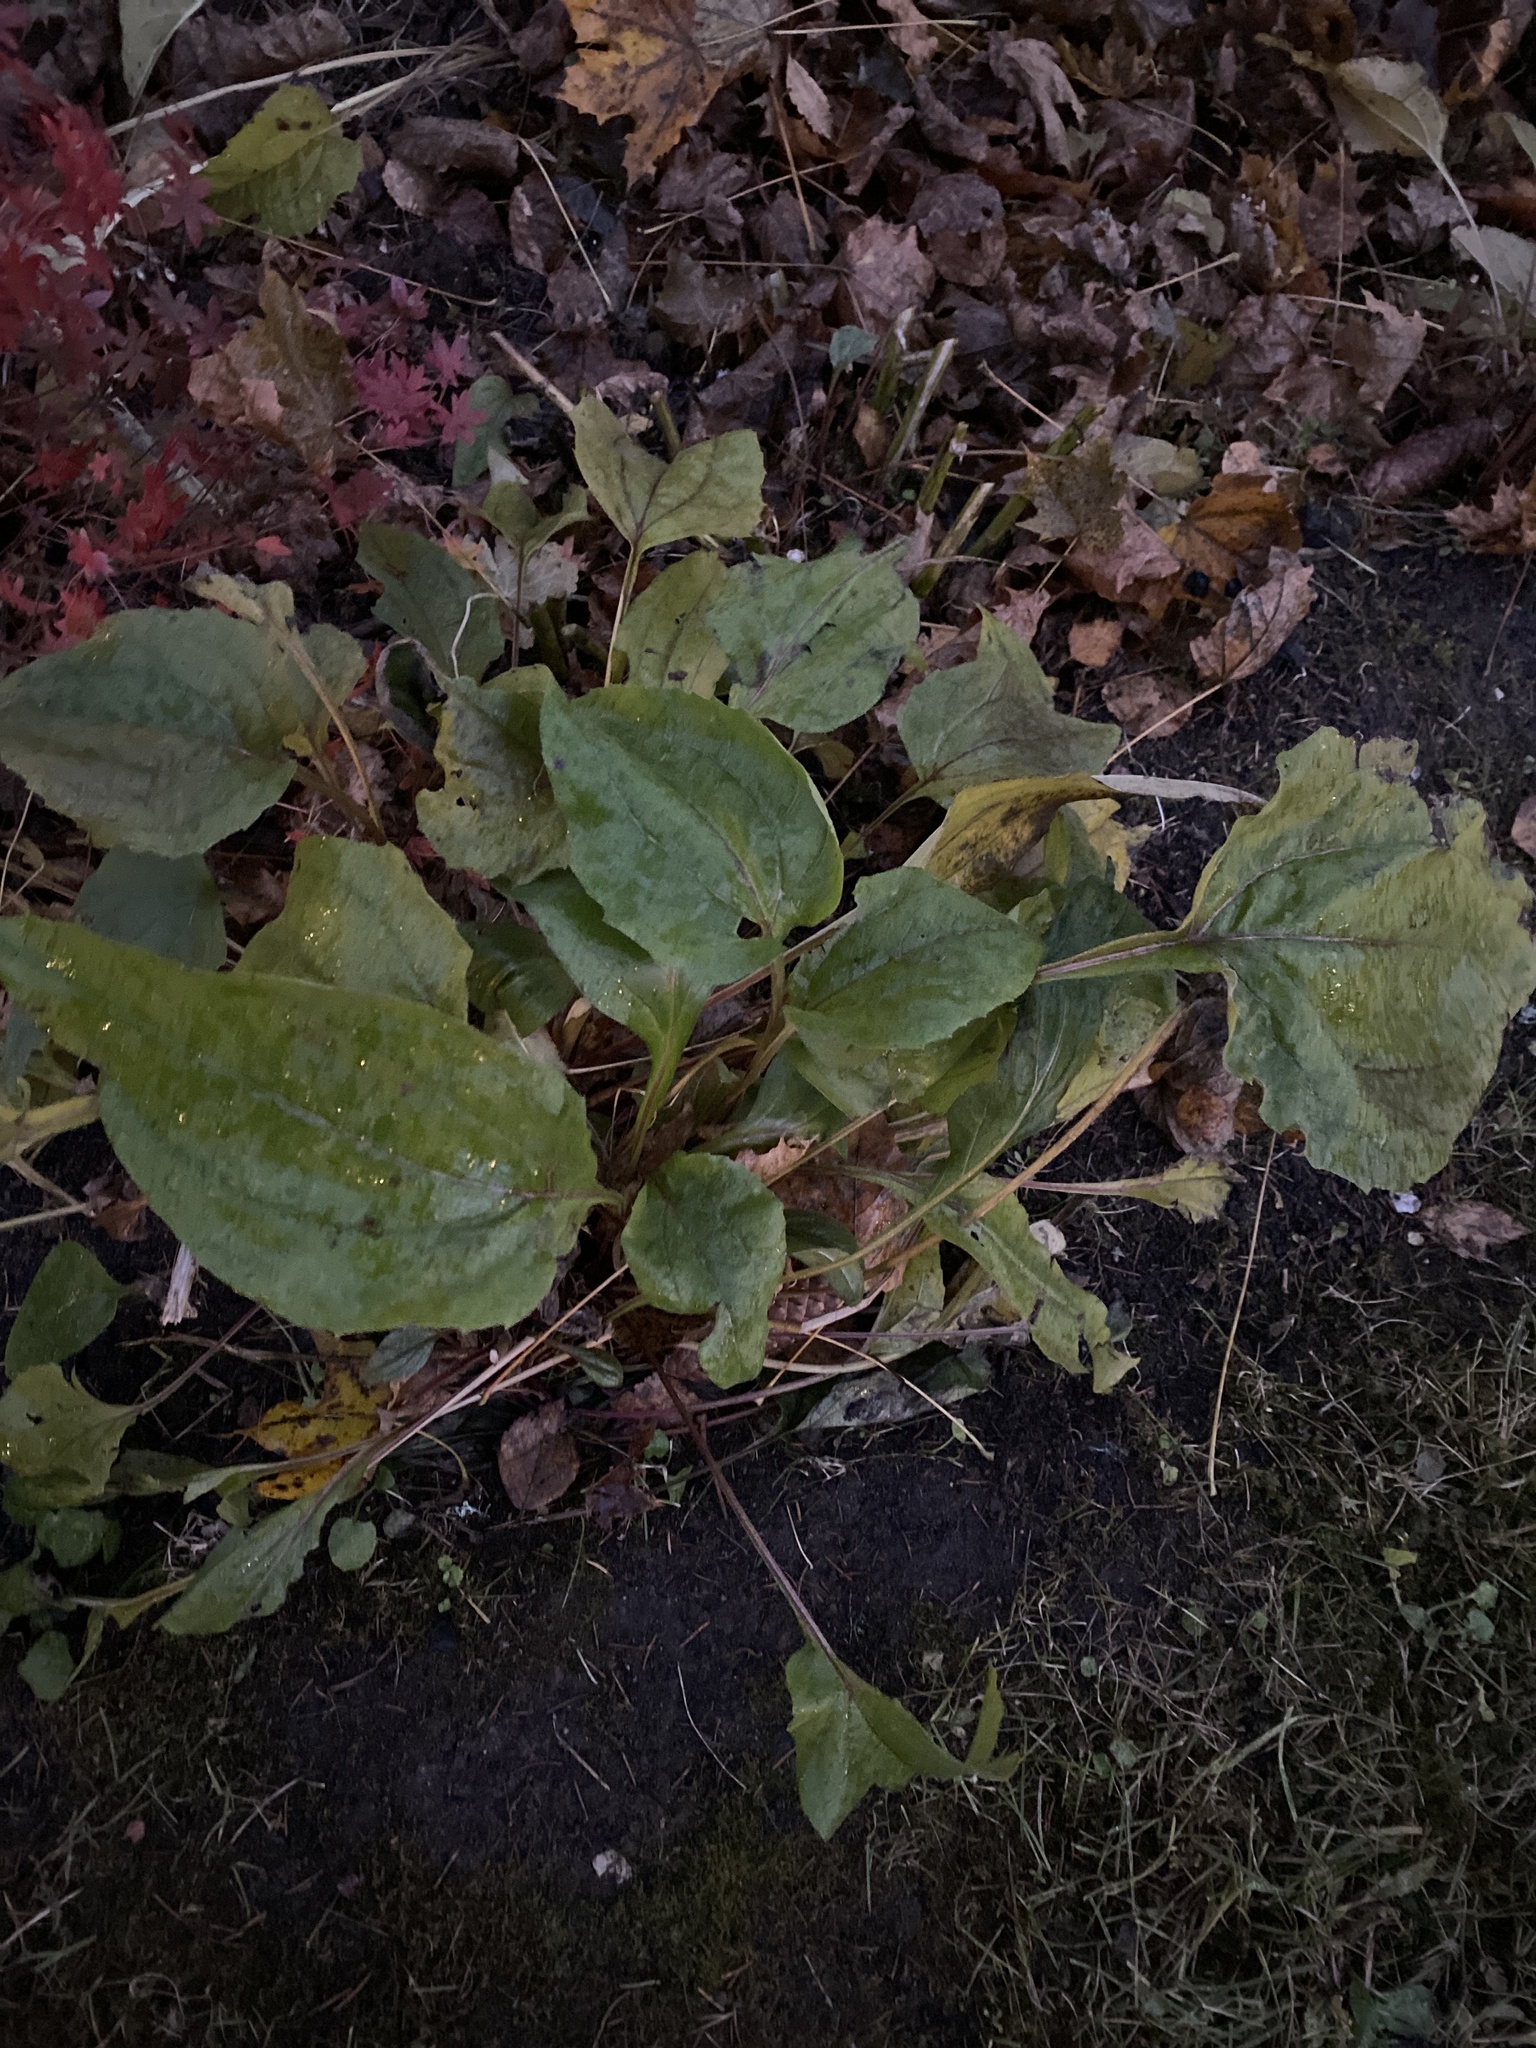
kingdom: Plantae
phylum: Tracheophyta
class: Magnoliopsida
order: Lamiales
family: Plantaginaceae
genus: Plantago
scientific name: Plantago major
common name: Common plantain
